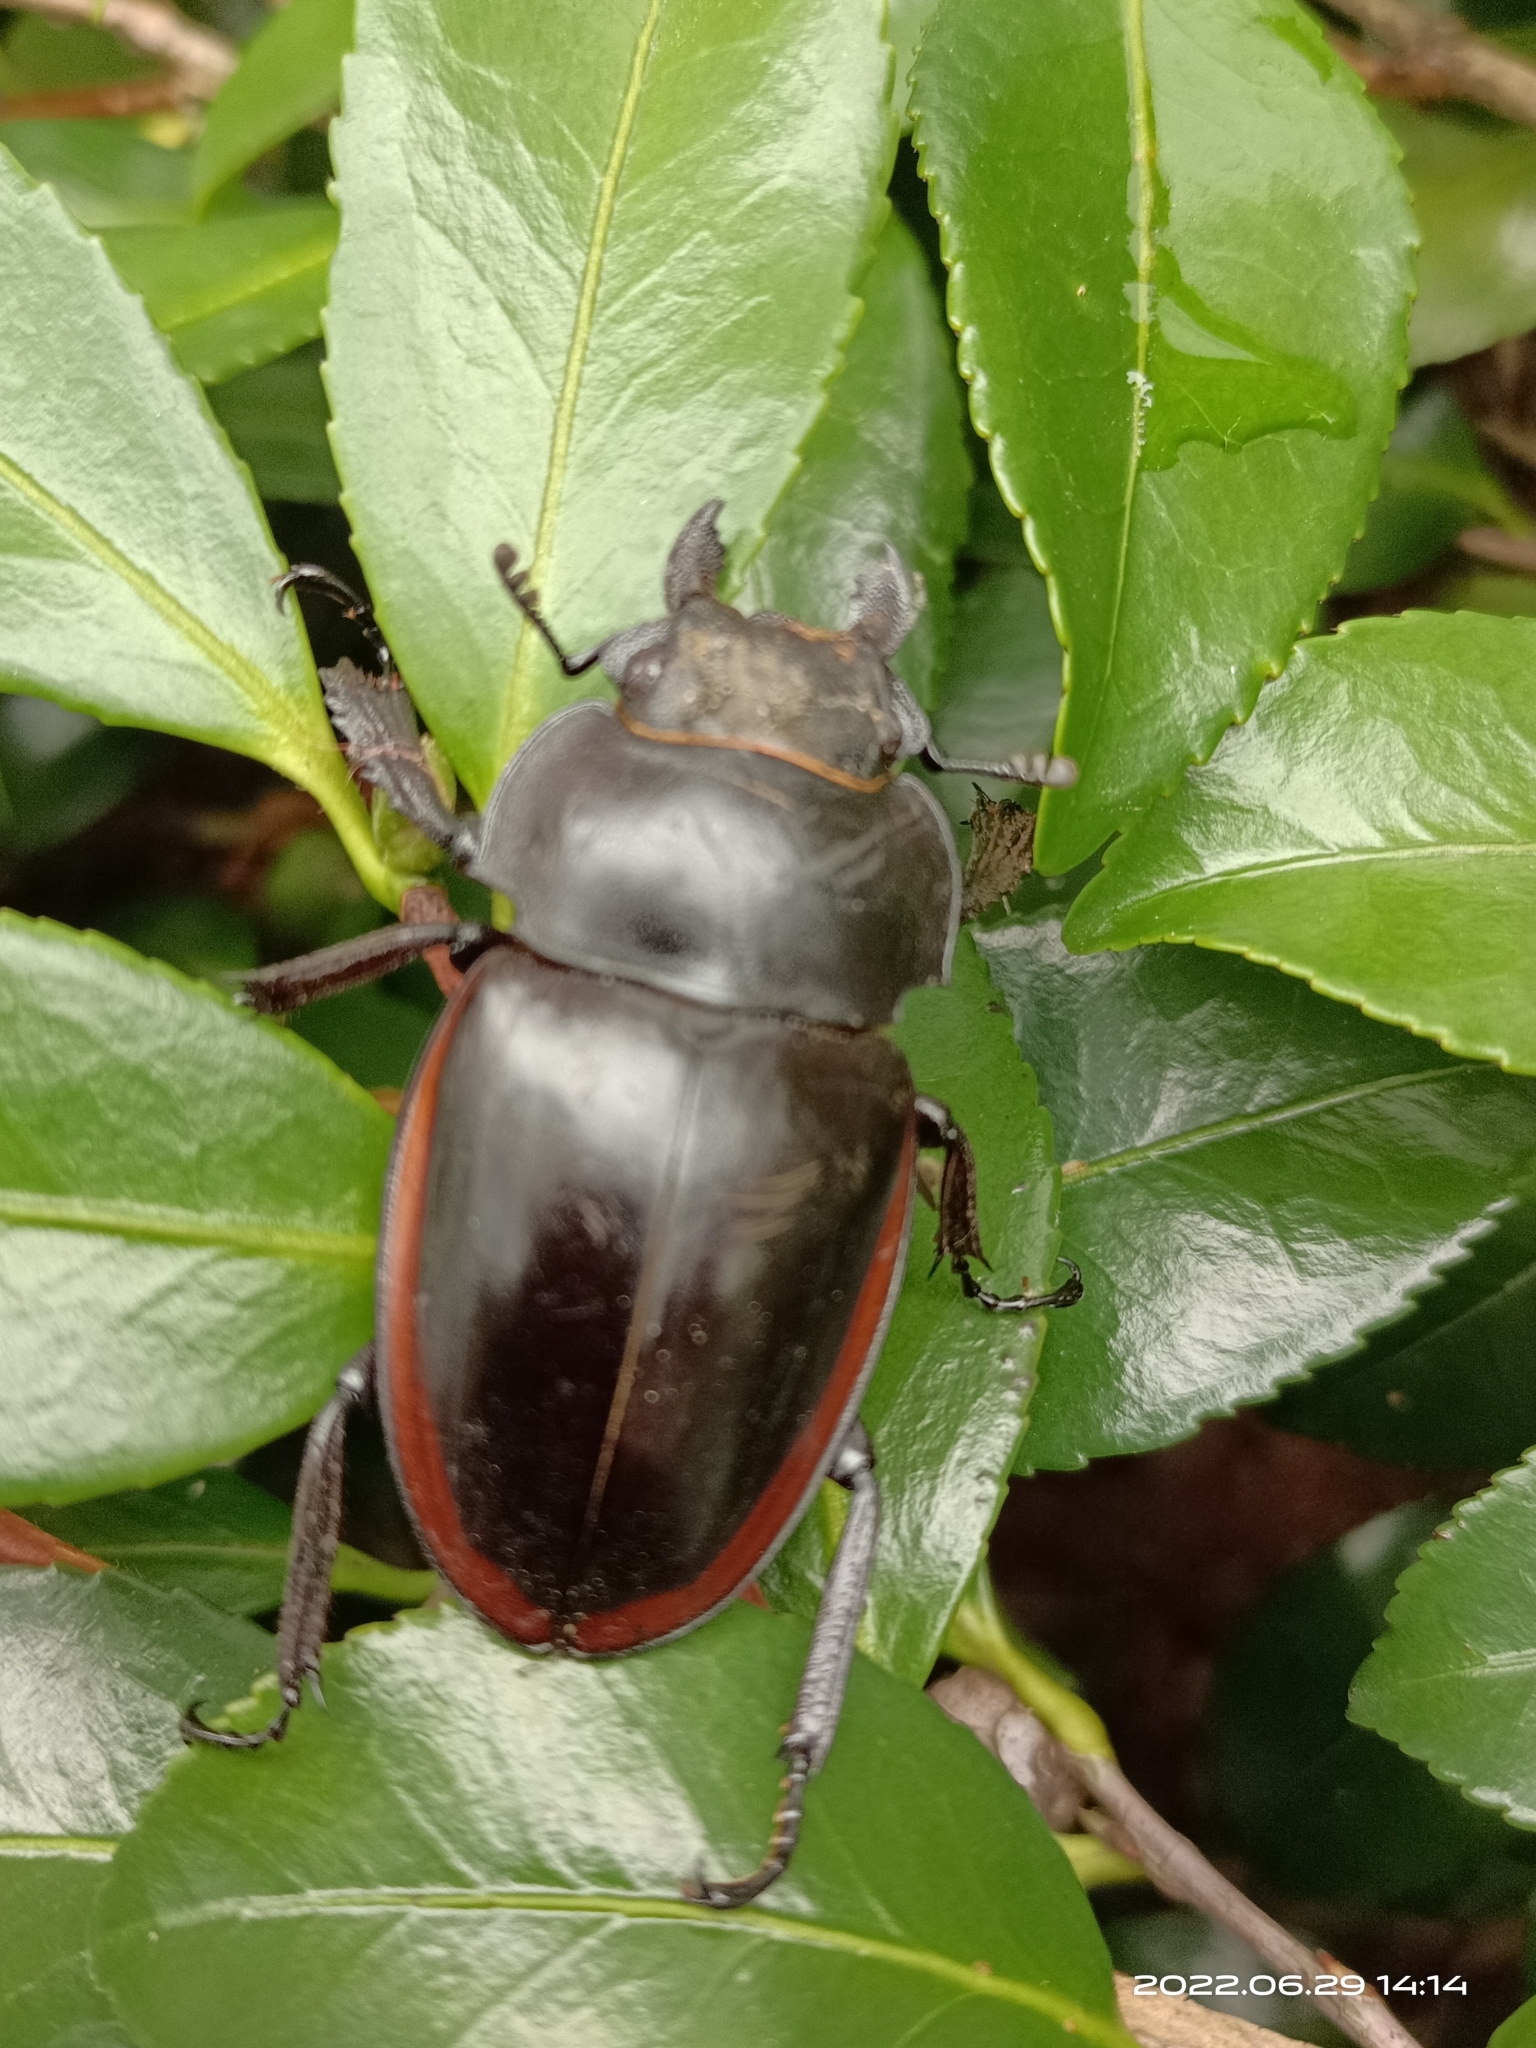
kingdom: Animalia
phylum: Arthropoda
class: Insecta
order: Coleoptera
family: Lucanidae
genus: Odontolabis
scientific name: Odontolabis cuvera
